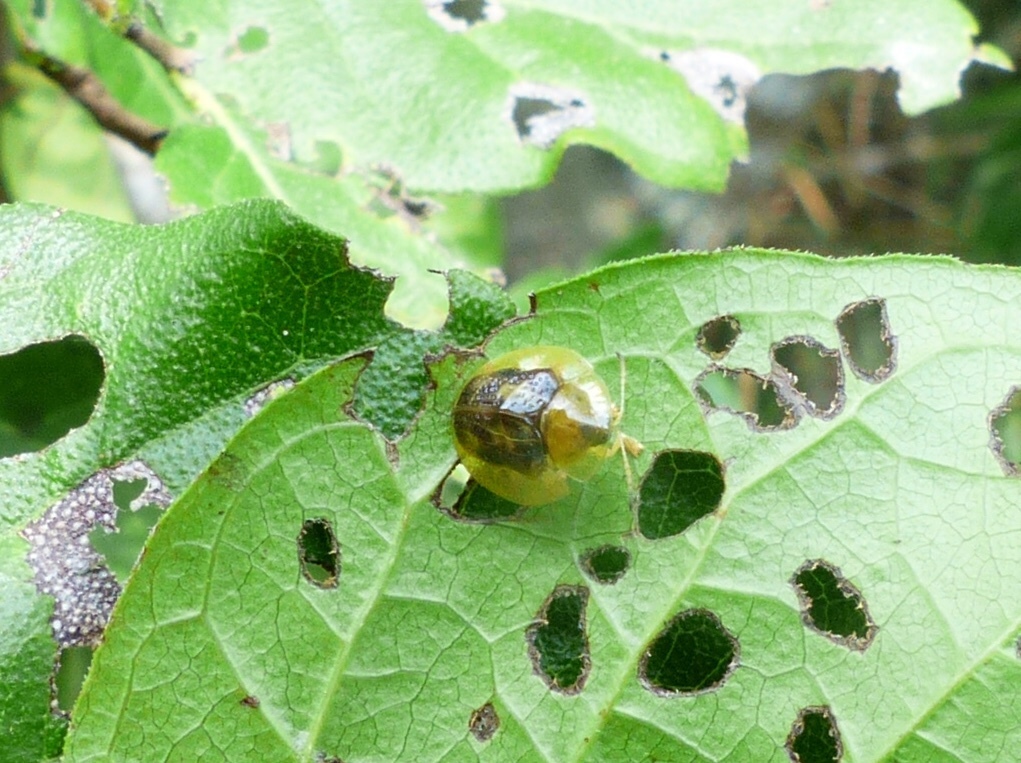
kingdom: Animalia
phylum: Arthropoda
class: Insecta
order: Coleoptera
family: Chrysomelidae
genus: Coptocycla
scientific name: Coptocycla texana
